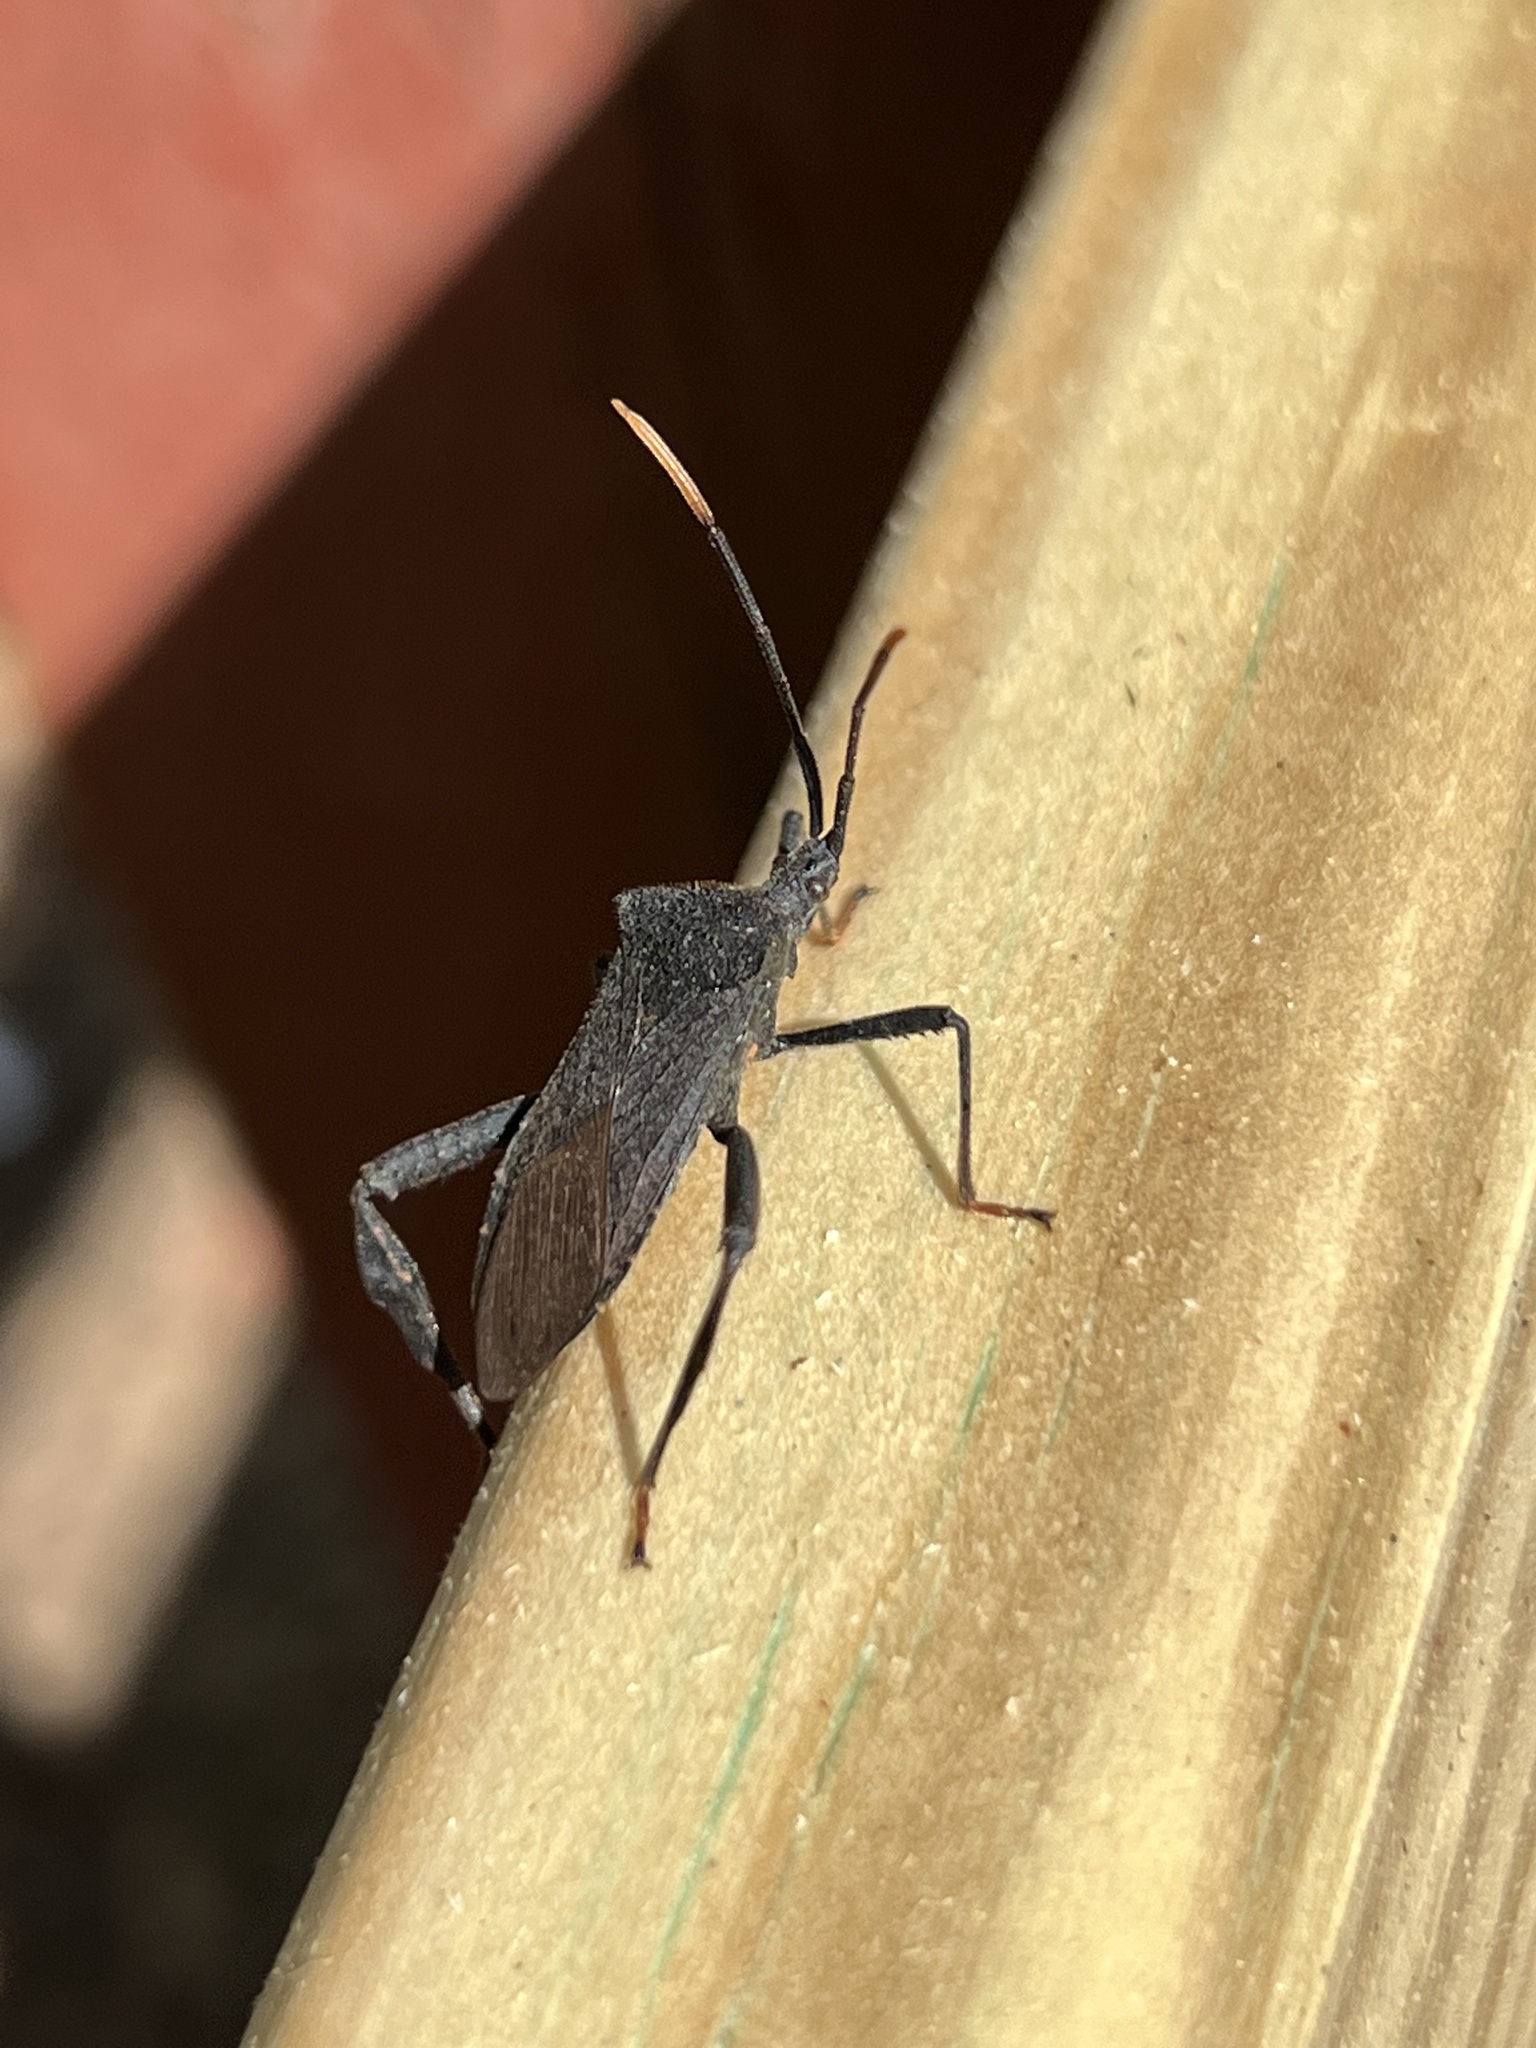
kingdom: Animalia
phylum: Arthropoda
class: Insecta
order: Hemiptera
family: Coreidae
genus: Acanthocephala
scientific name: Acanthocephala terminalis
